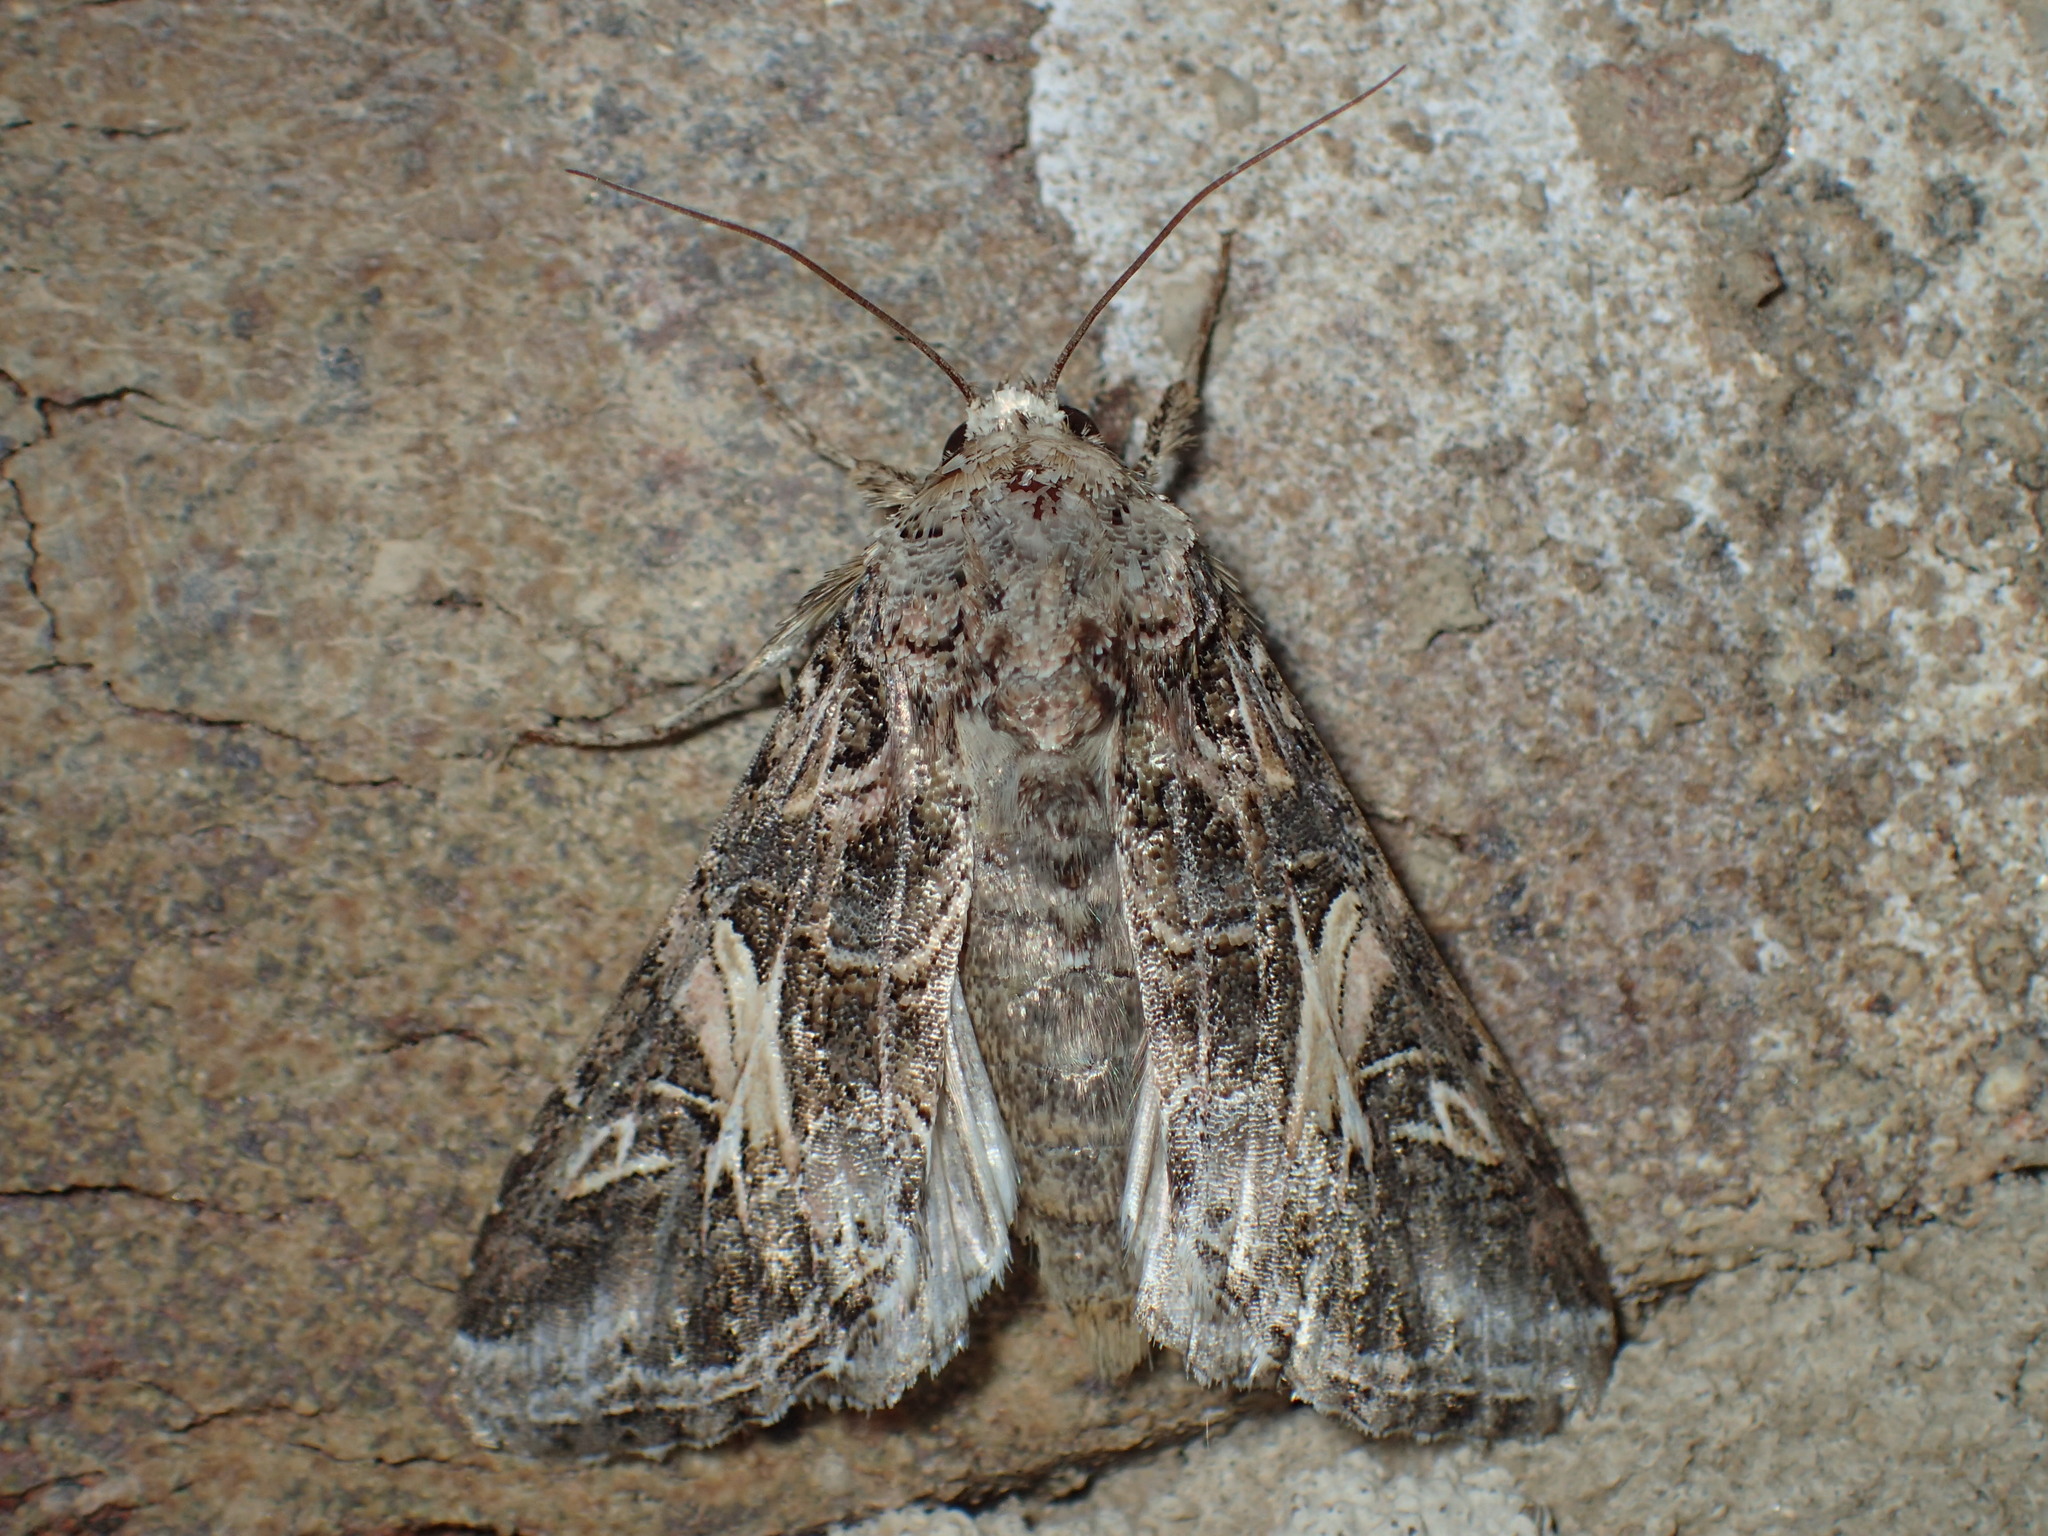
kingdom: Animalia
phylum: Arthropoda
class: Insecta
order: Lepidoptera
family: Noctuidae
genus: Spodoptera
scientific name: Spodoptera ornithogalli
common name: Yellow-striped armyworm
